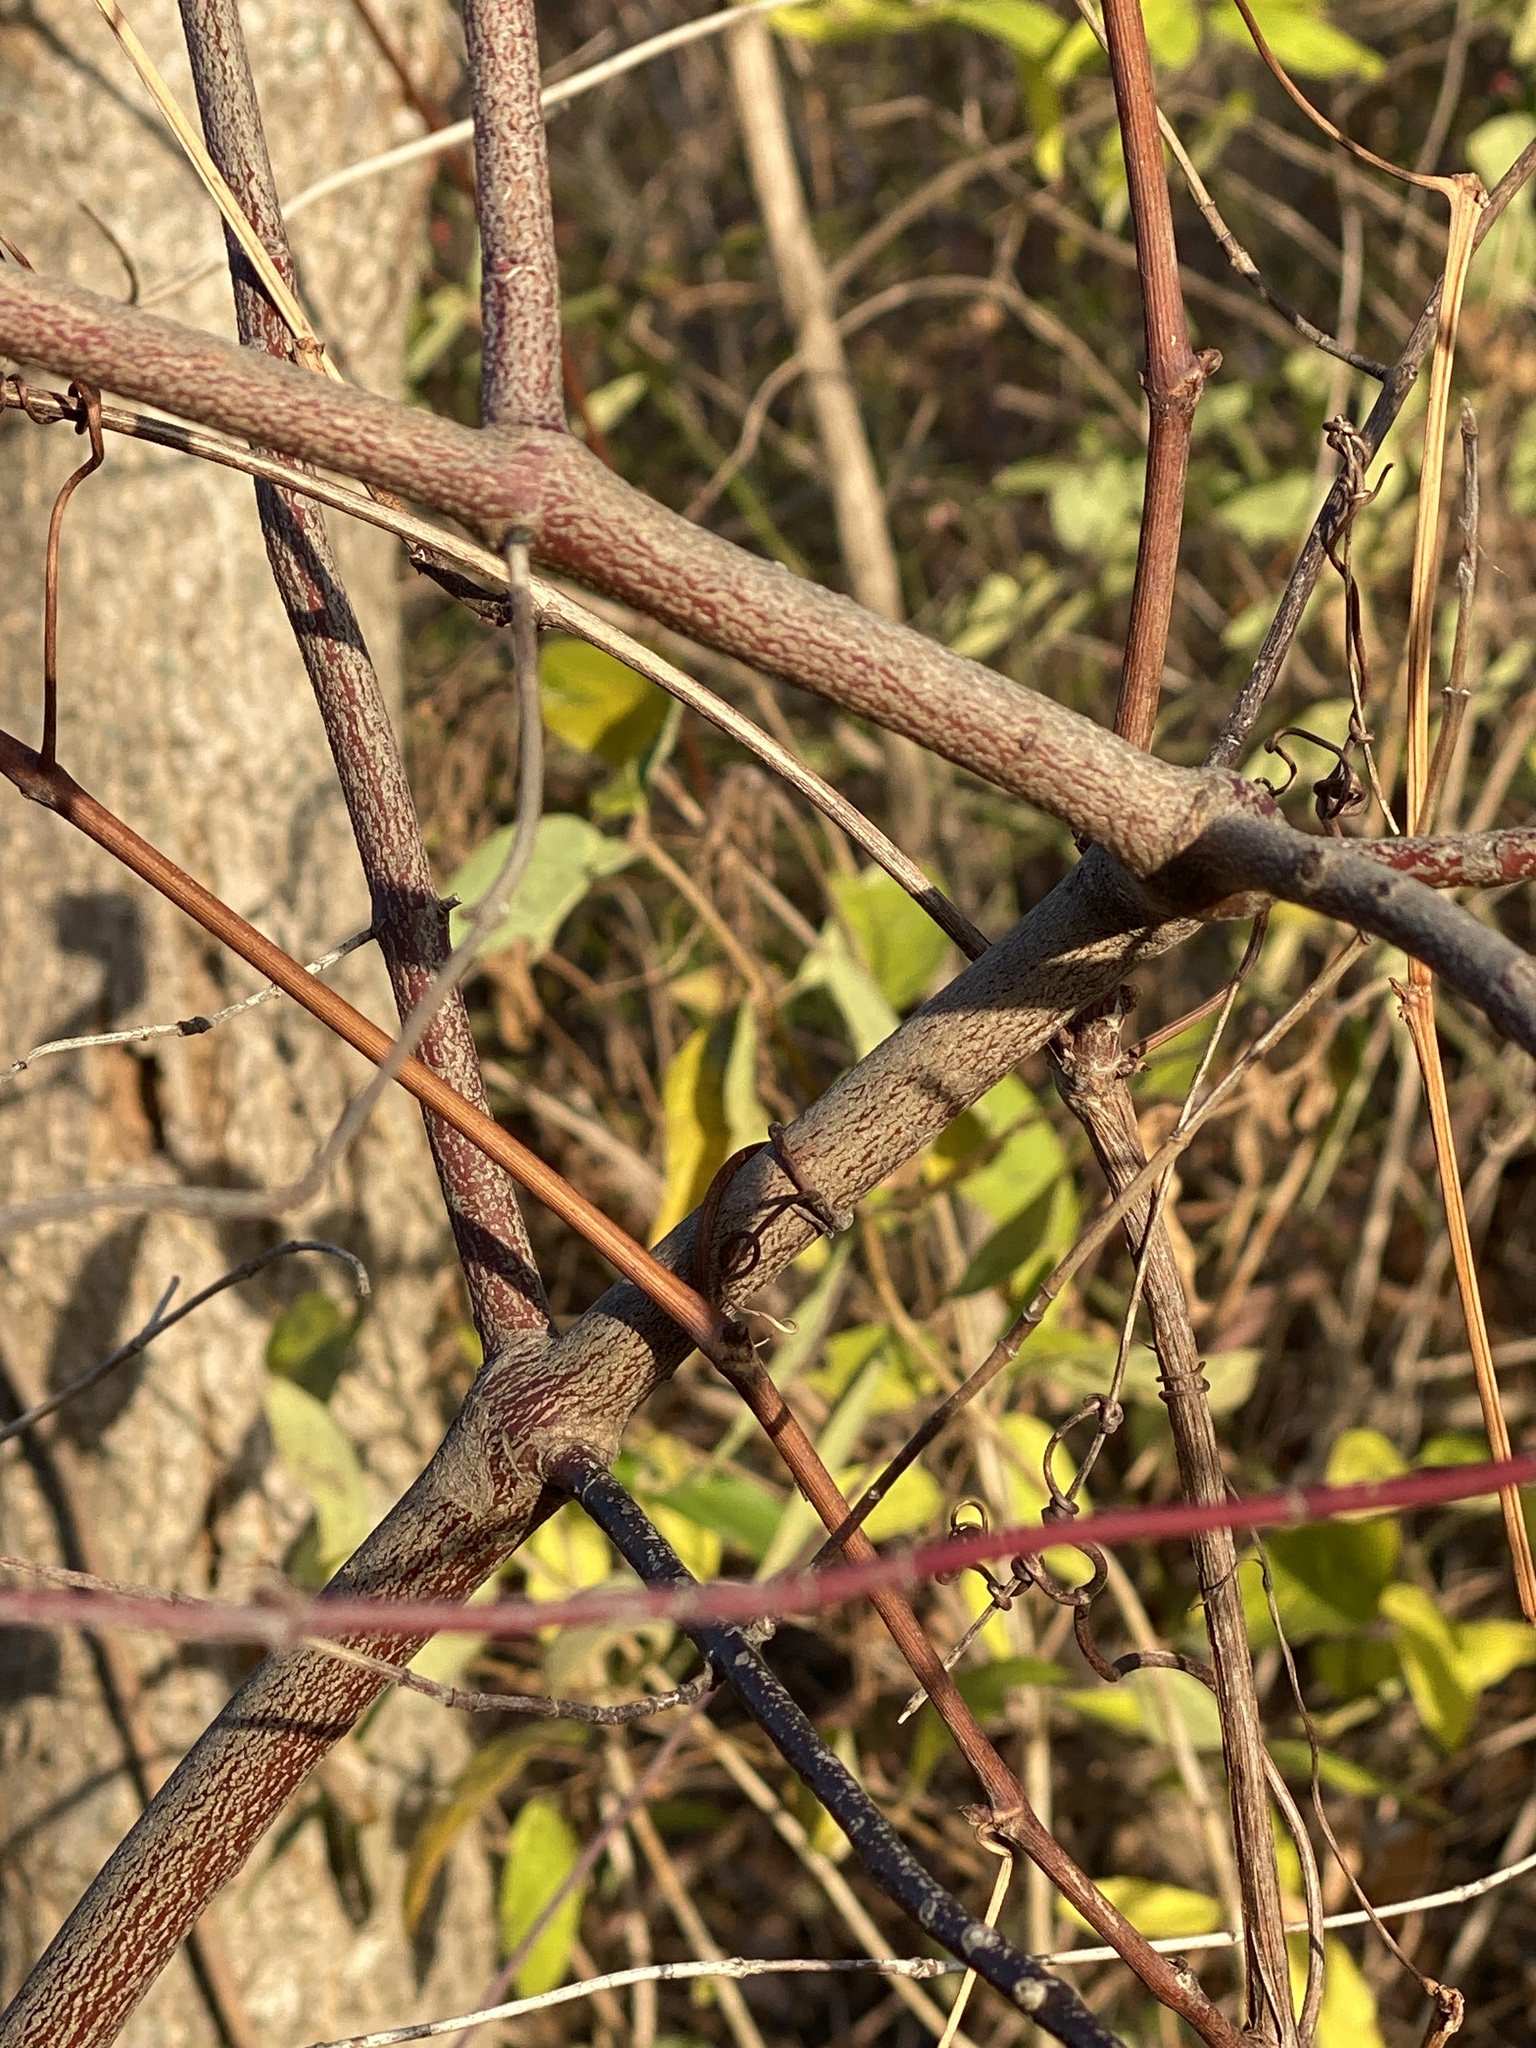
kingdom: Plantae
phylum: Tracheophyta
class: Magnoliopsida
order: Cornales
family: Cornaceae
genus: Cornus
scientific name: Cornus amomum
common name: Silky dogwood
